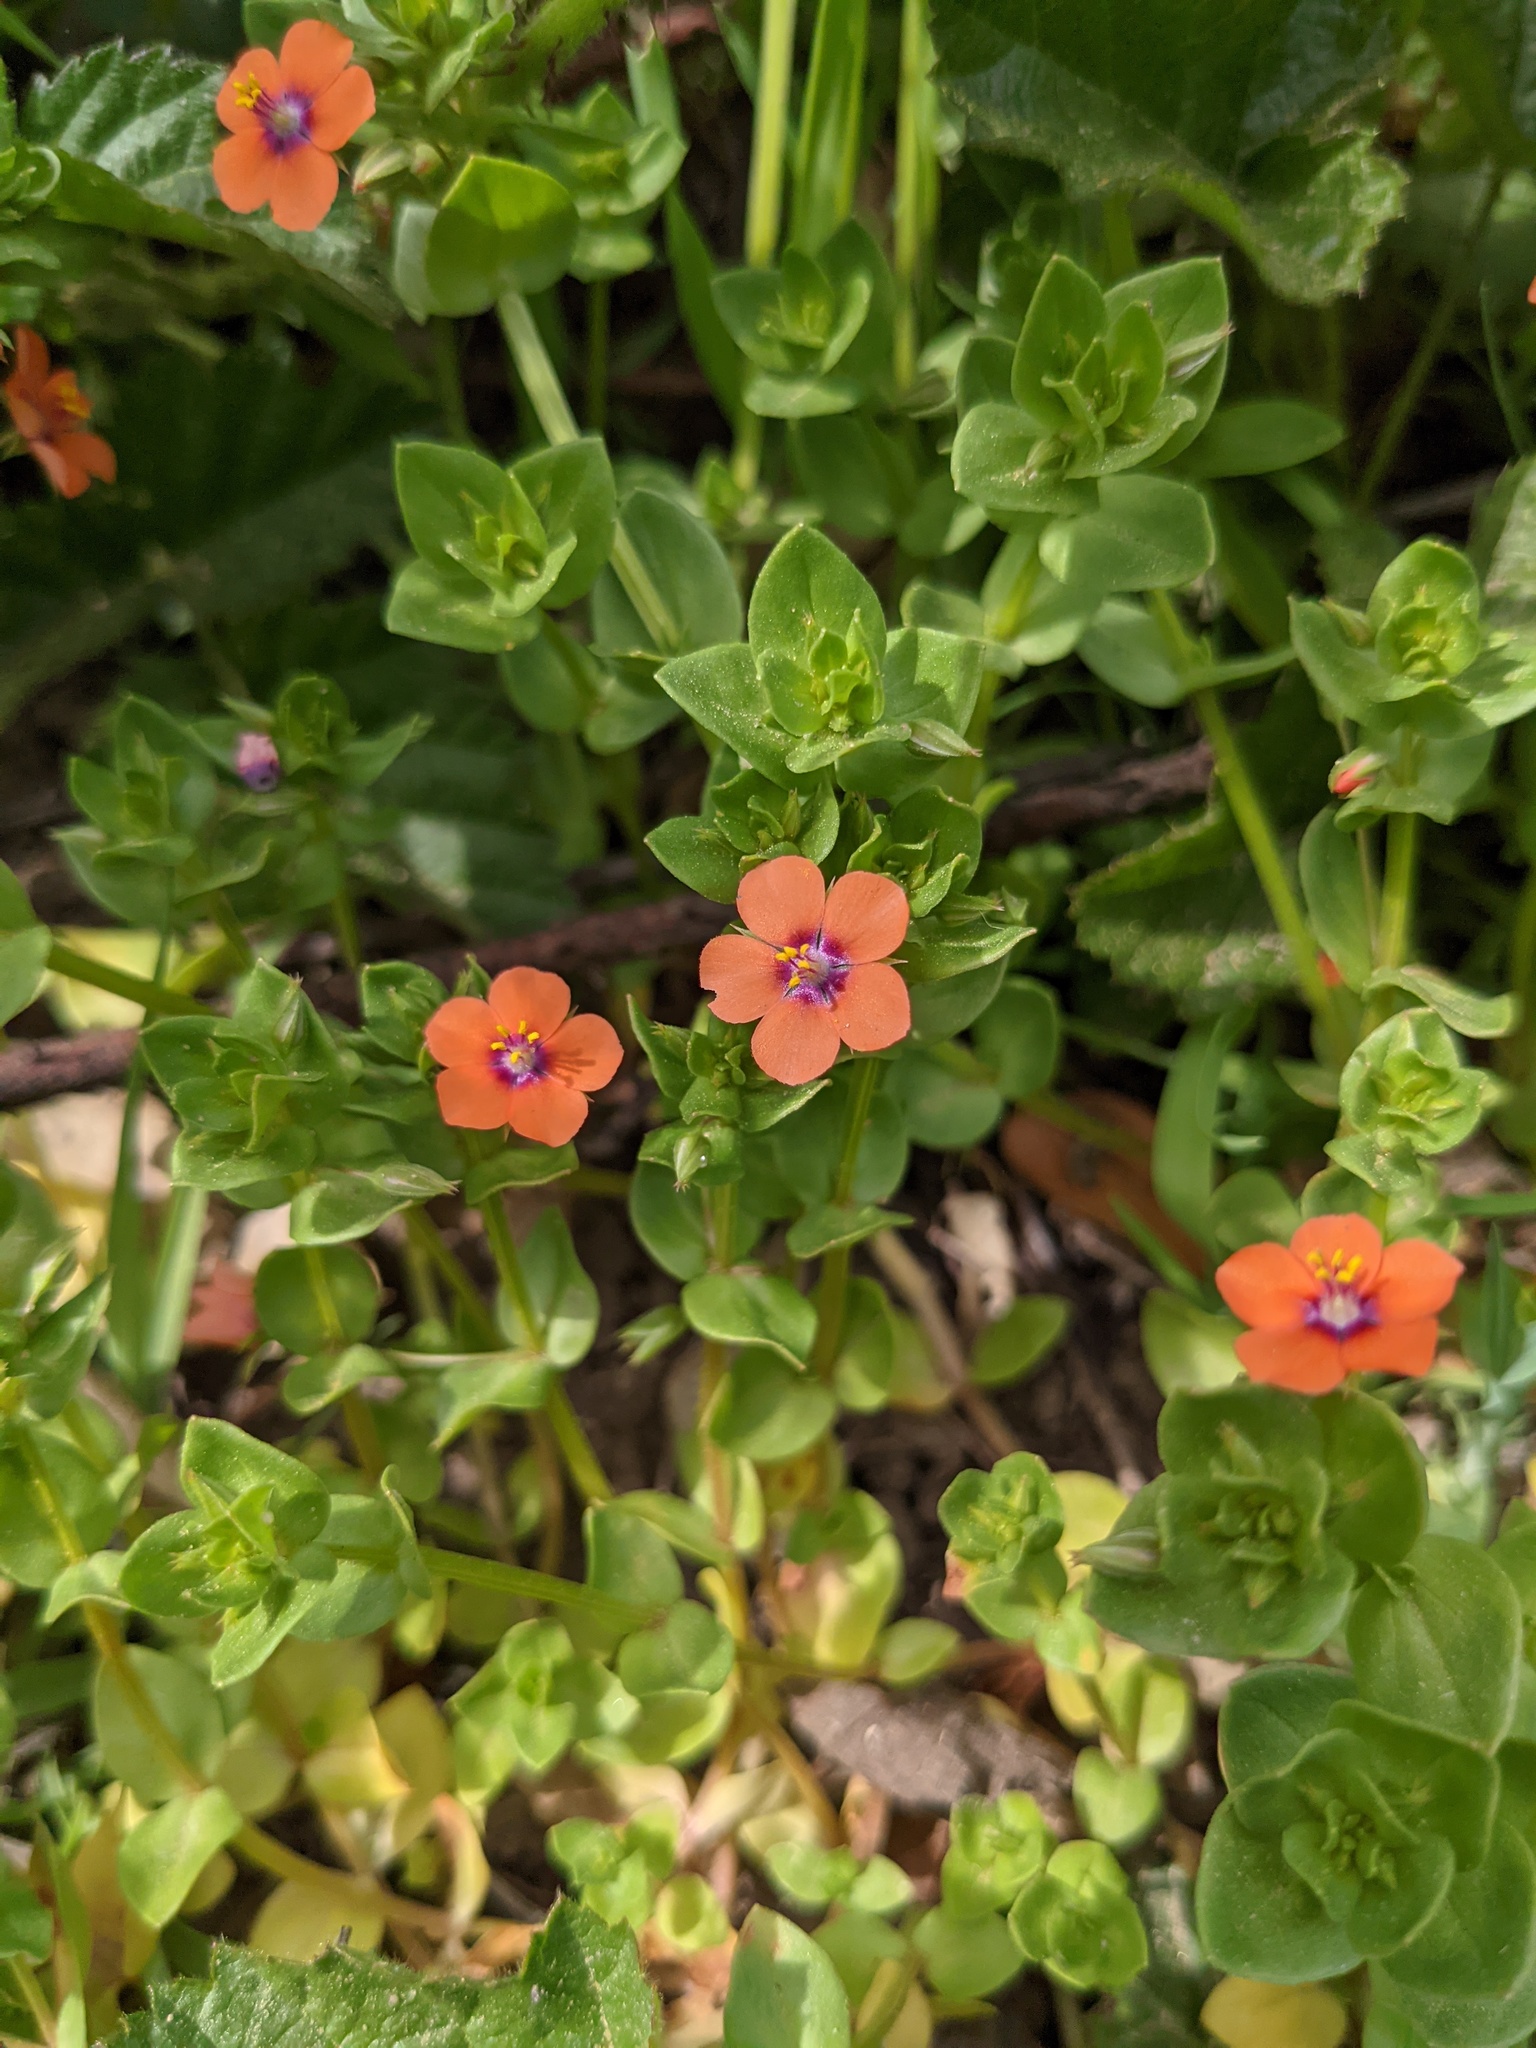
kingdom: Plantae
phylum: Tracheophyta
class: Magnoliopsida
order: Ericales
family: Primulaceae
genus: Lysimachia
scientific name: Lysimachia arvensis
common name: Scarlet pimpernel
